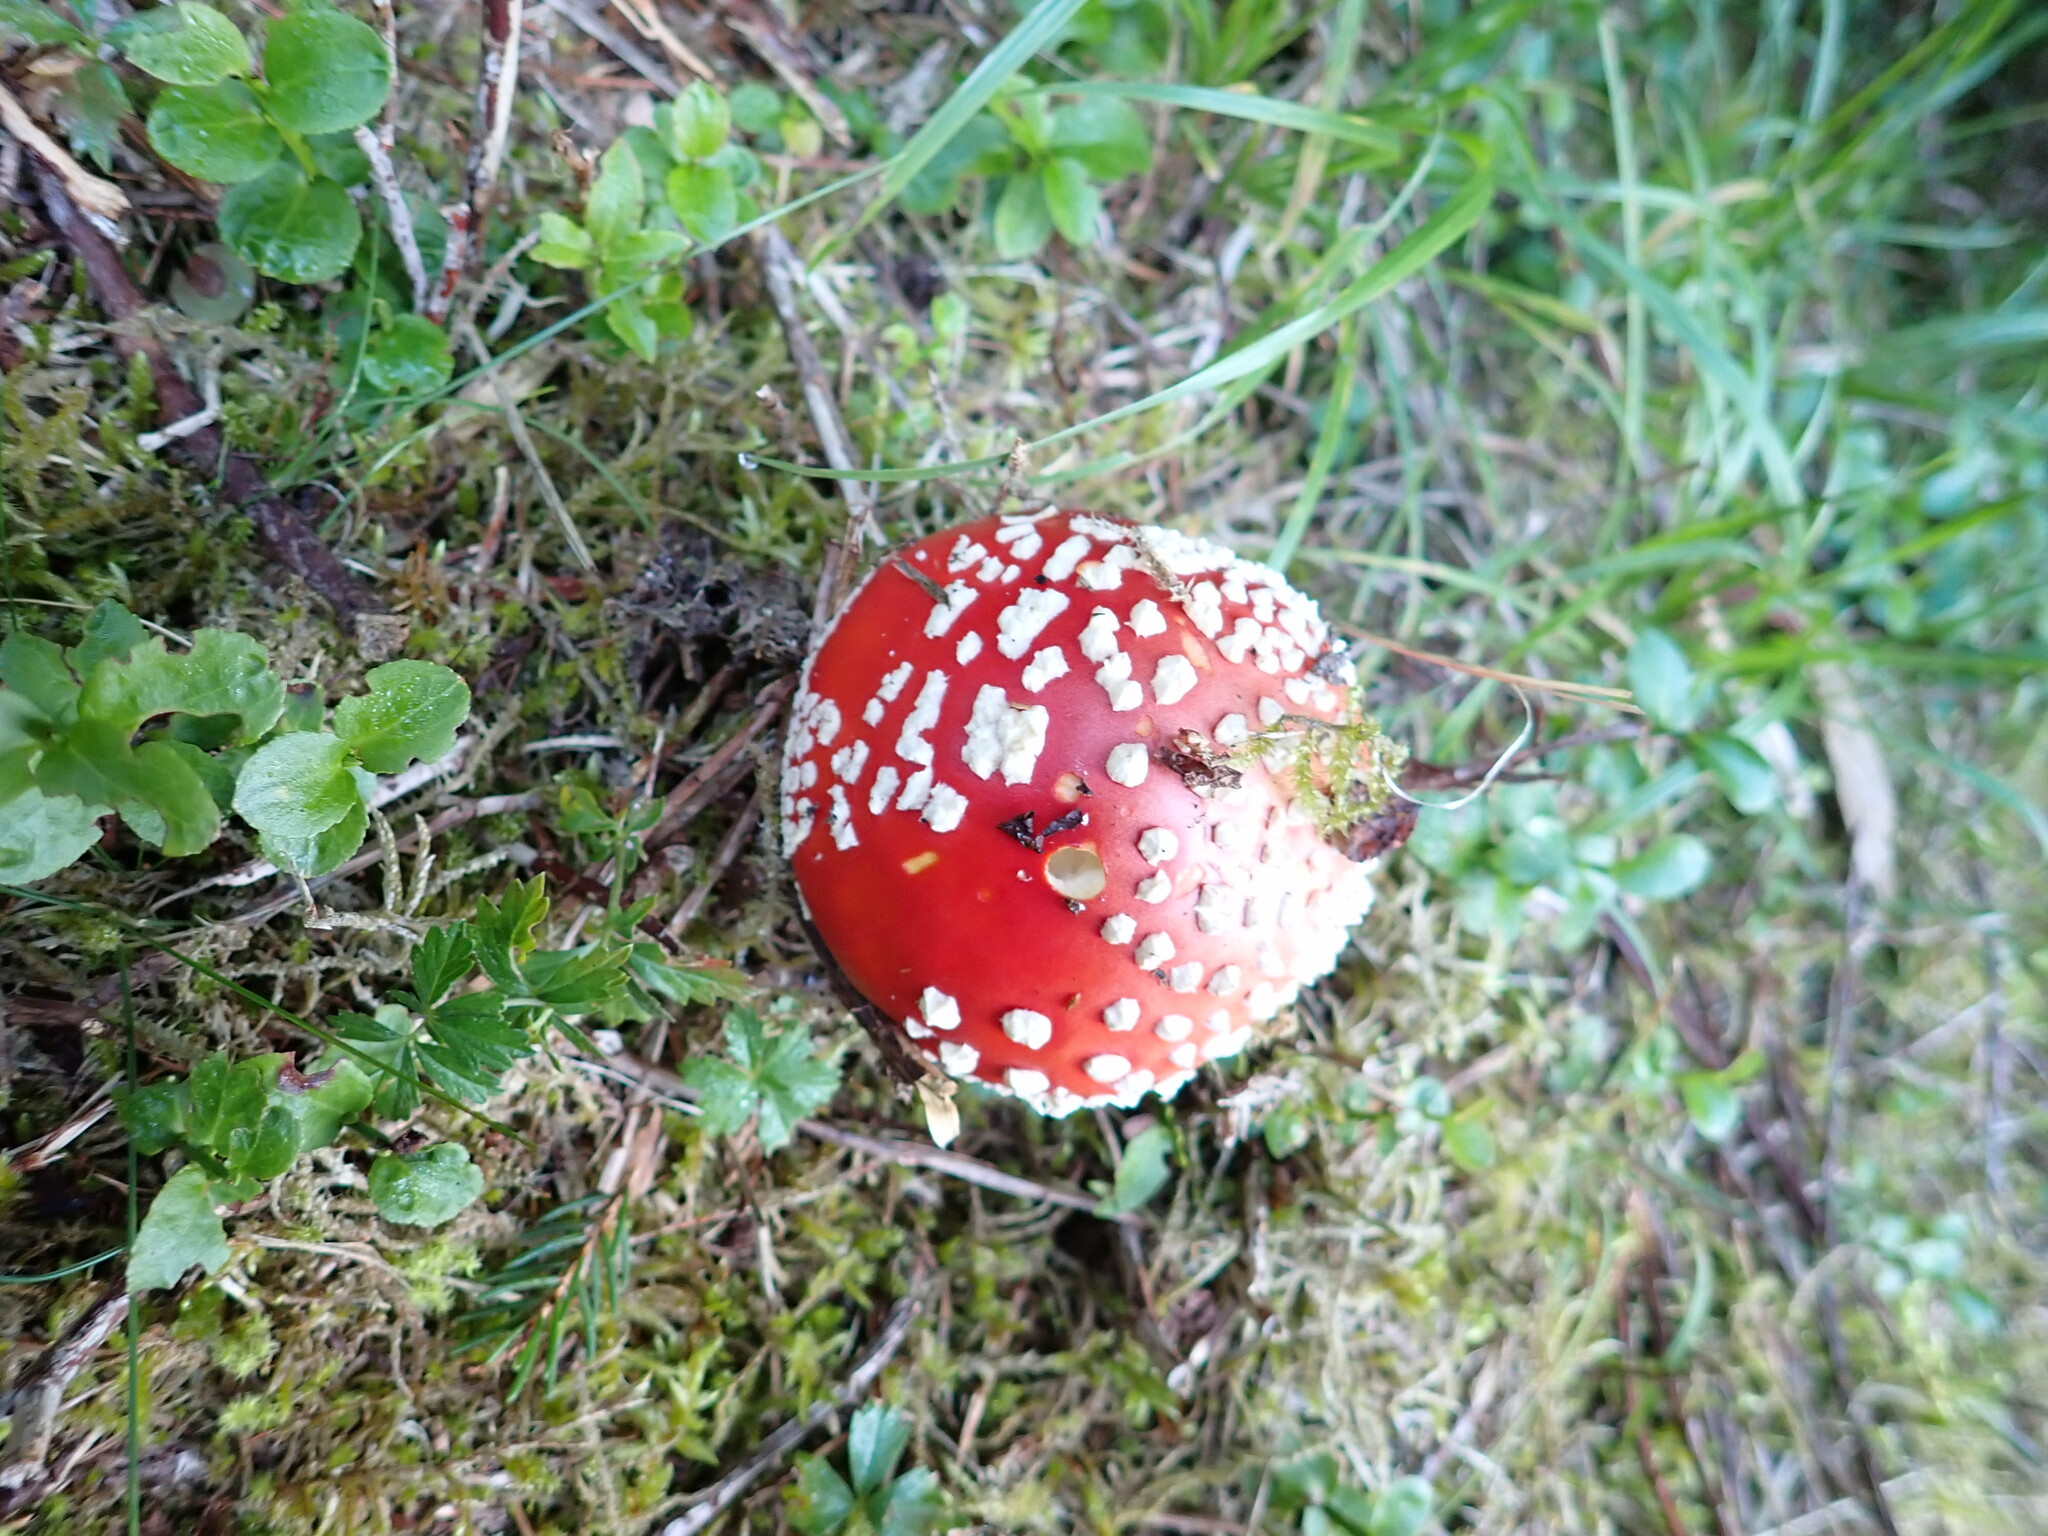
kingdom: Fungi
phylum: Basidiomycota
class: Agaricomycetes
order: Agaricales
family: Amanitaceae
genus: Amanita
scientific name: Amanita muscaria
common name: Fly agaric
